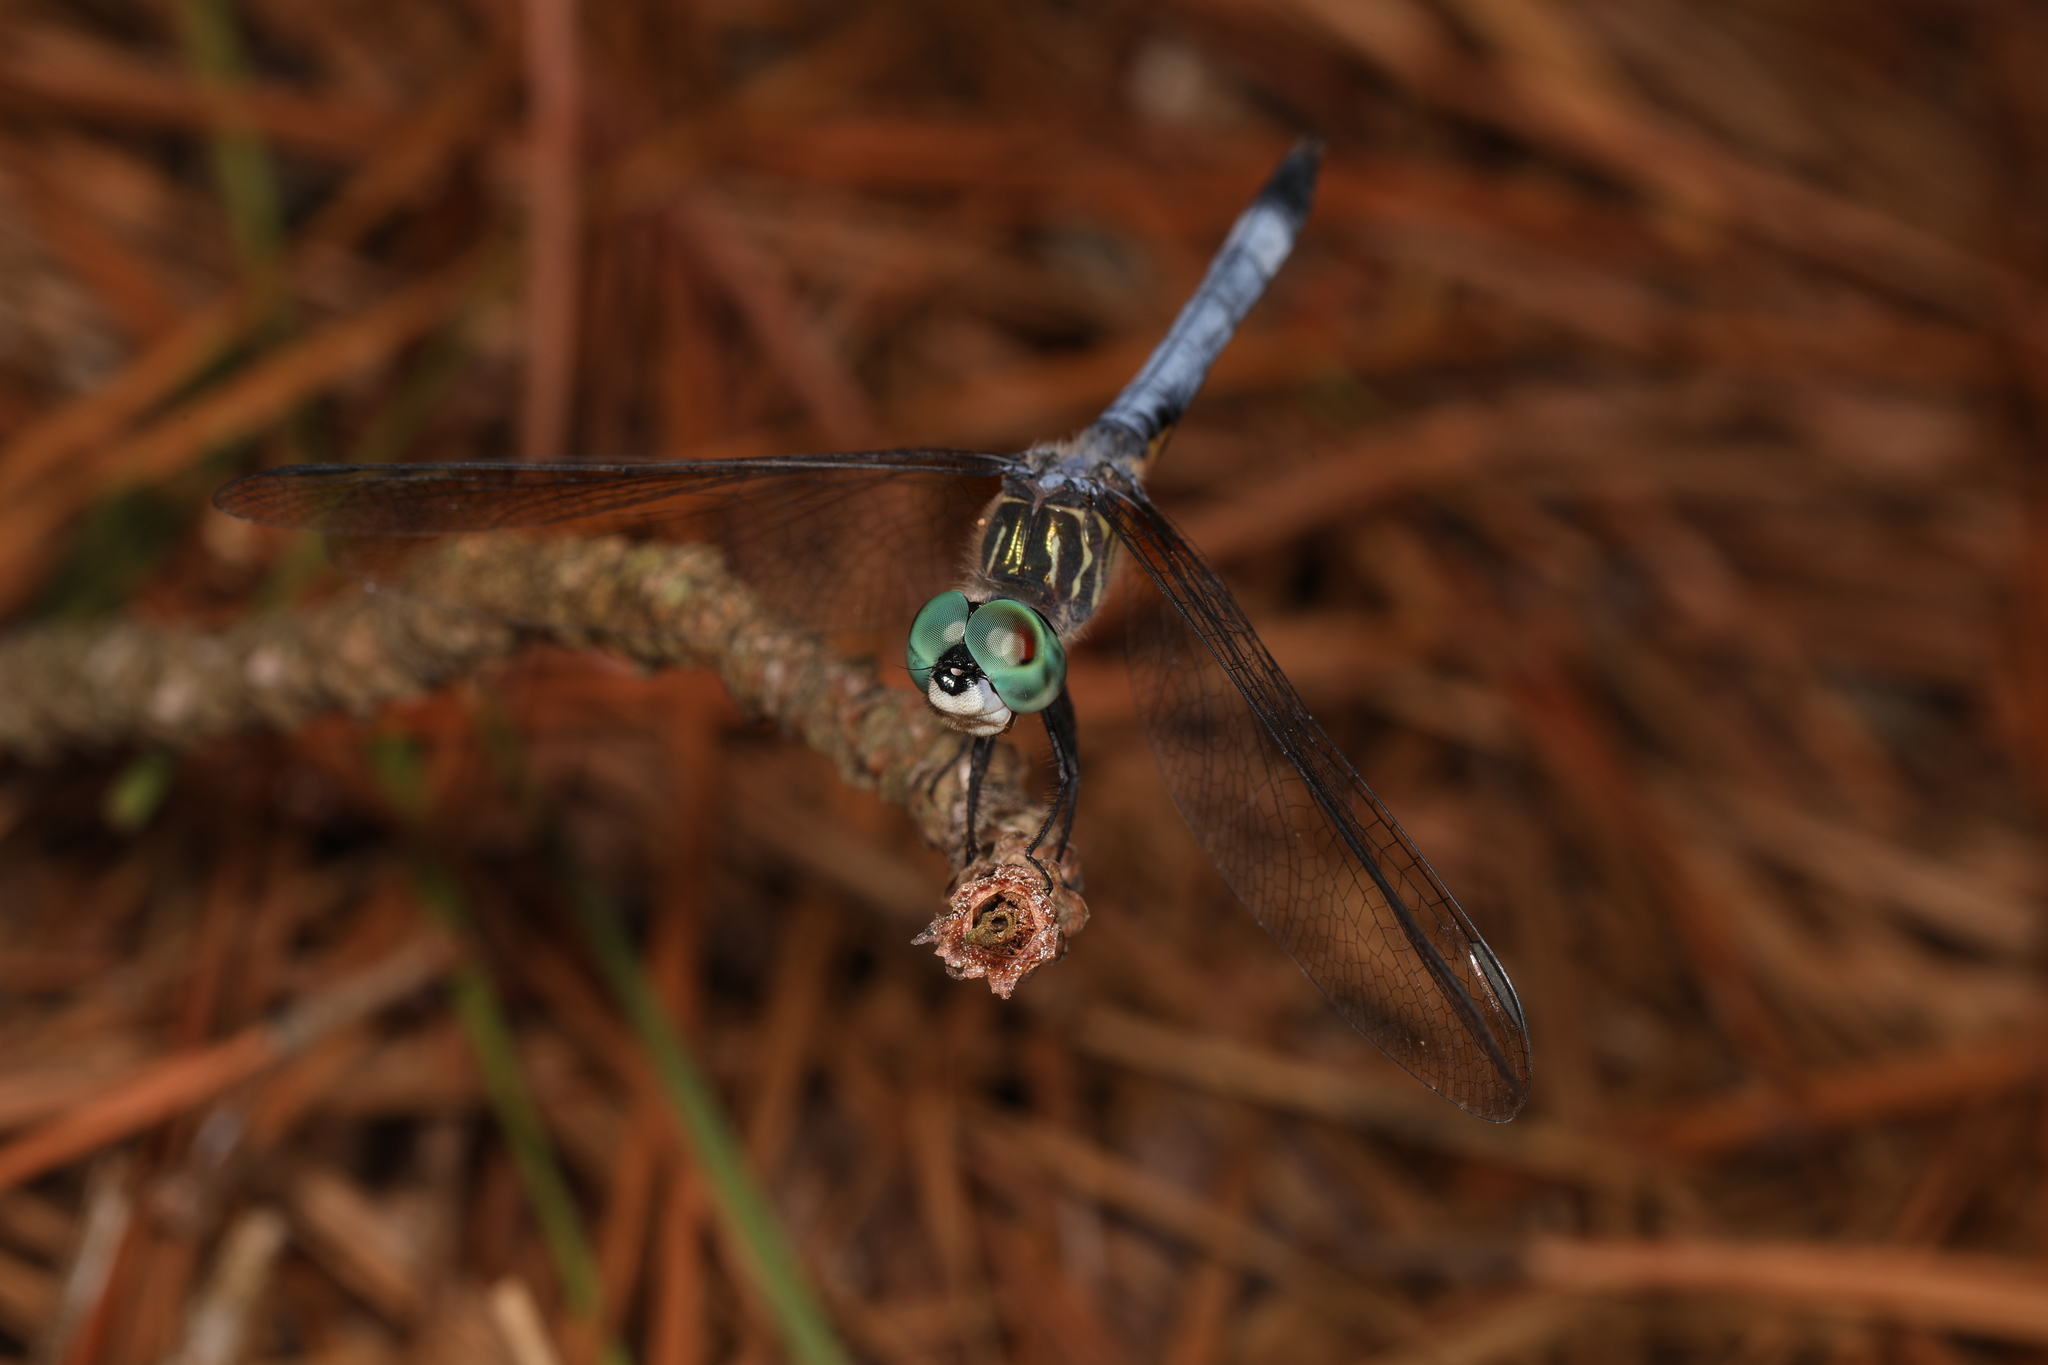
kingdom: Animalia
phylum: Arthropoda
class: Insecta
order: Odonata
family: Libellulidae
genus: Pachydiplax
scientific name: Pachydiplax longipennis
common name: Blue dasher
